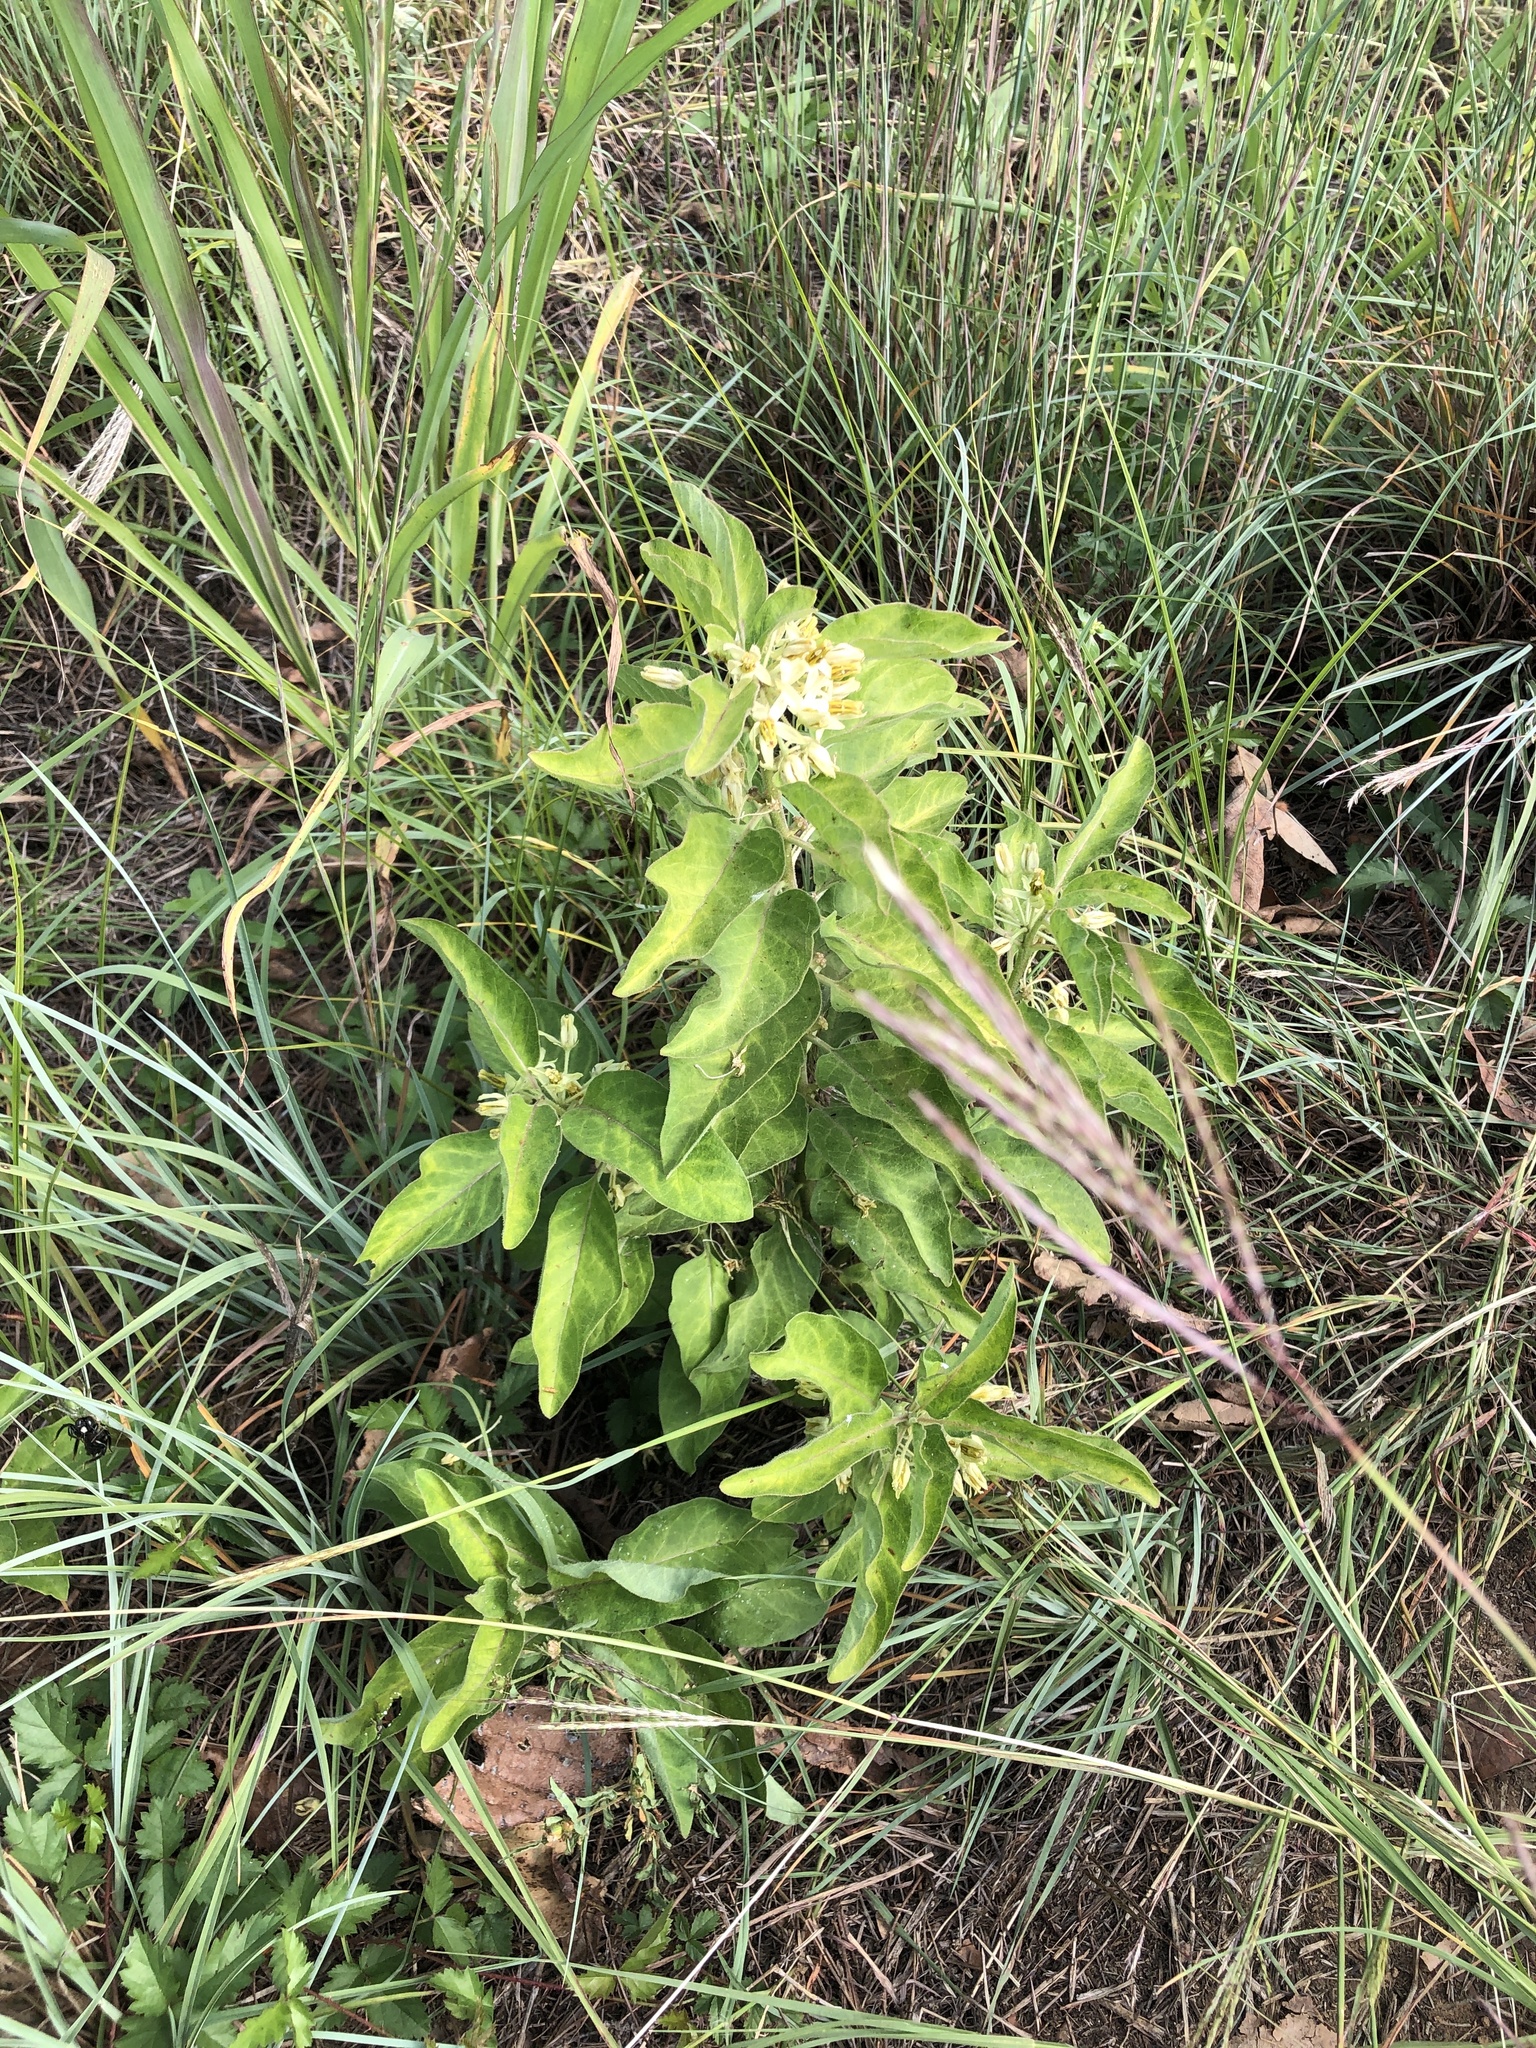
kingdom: Plantae
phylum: Tracheophyta
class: Magnoliopsida
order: Gentianales
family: Apocynaceae
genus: Asclepias
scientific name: Asclepias oenotheroides
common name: Zizotes milkweed
